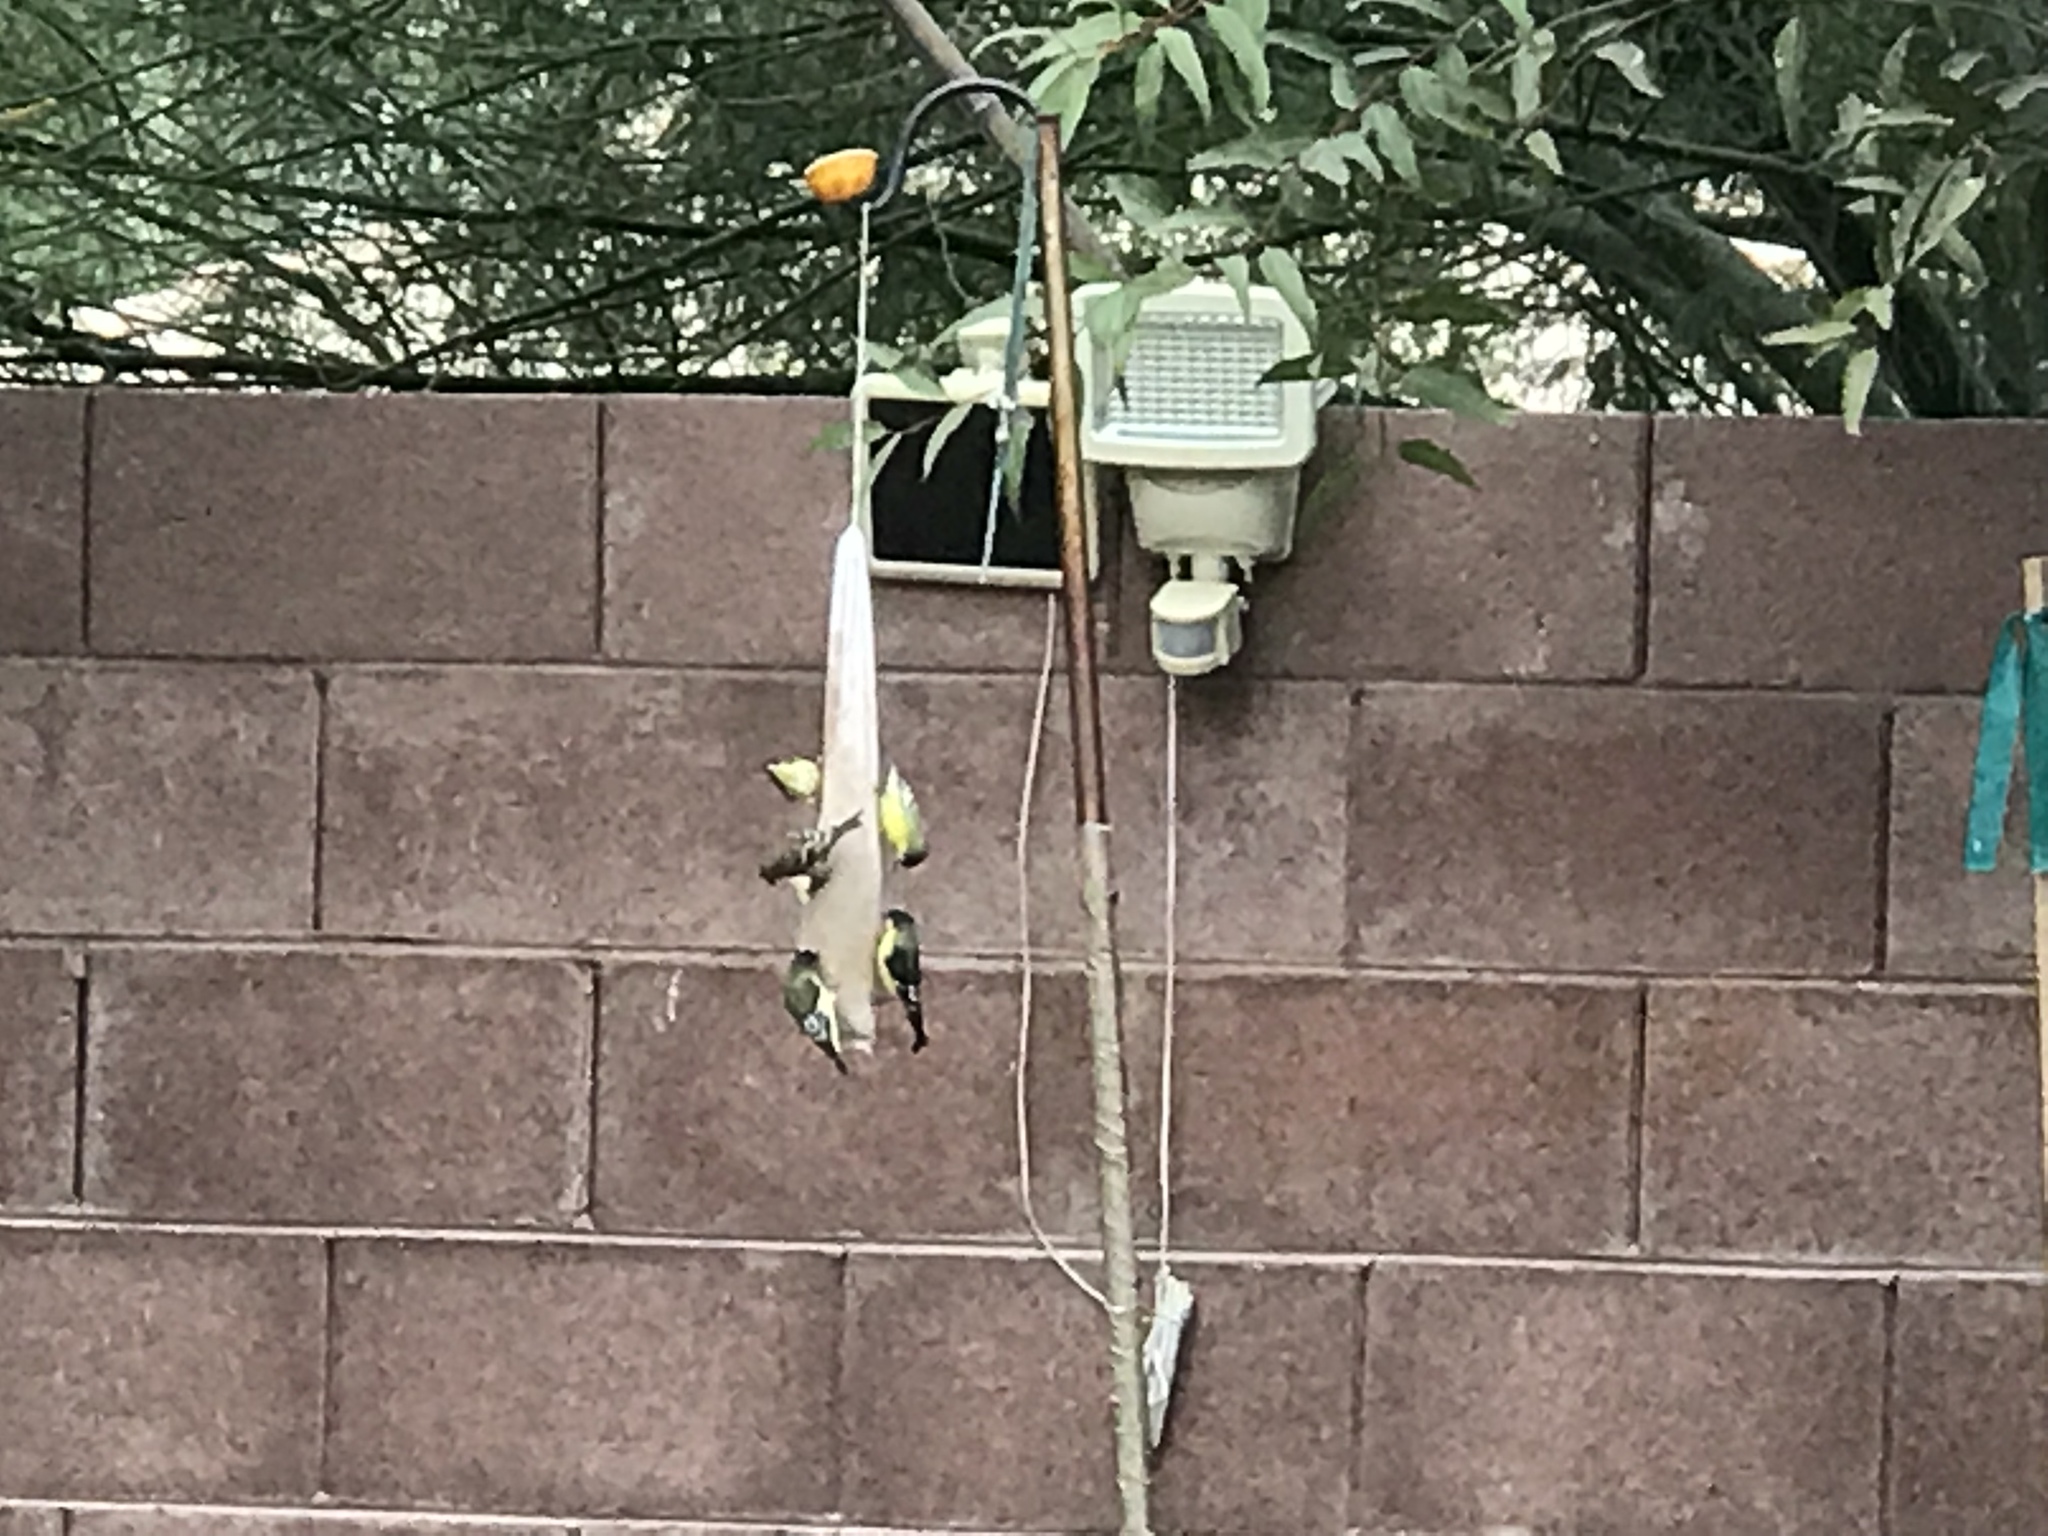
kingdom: Animalia
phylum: Chordata
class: Aves
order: Passeriformes
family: Fringillidae
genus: Spinus
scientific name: Spinus psaltria
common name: Lesser goldfinch
